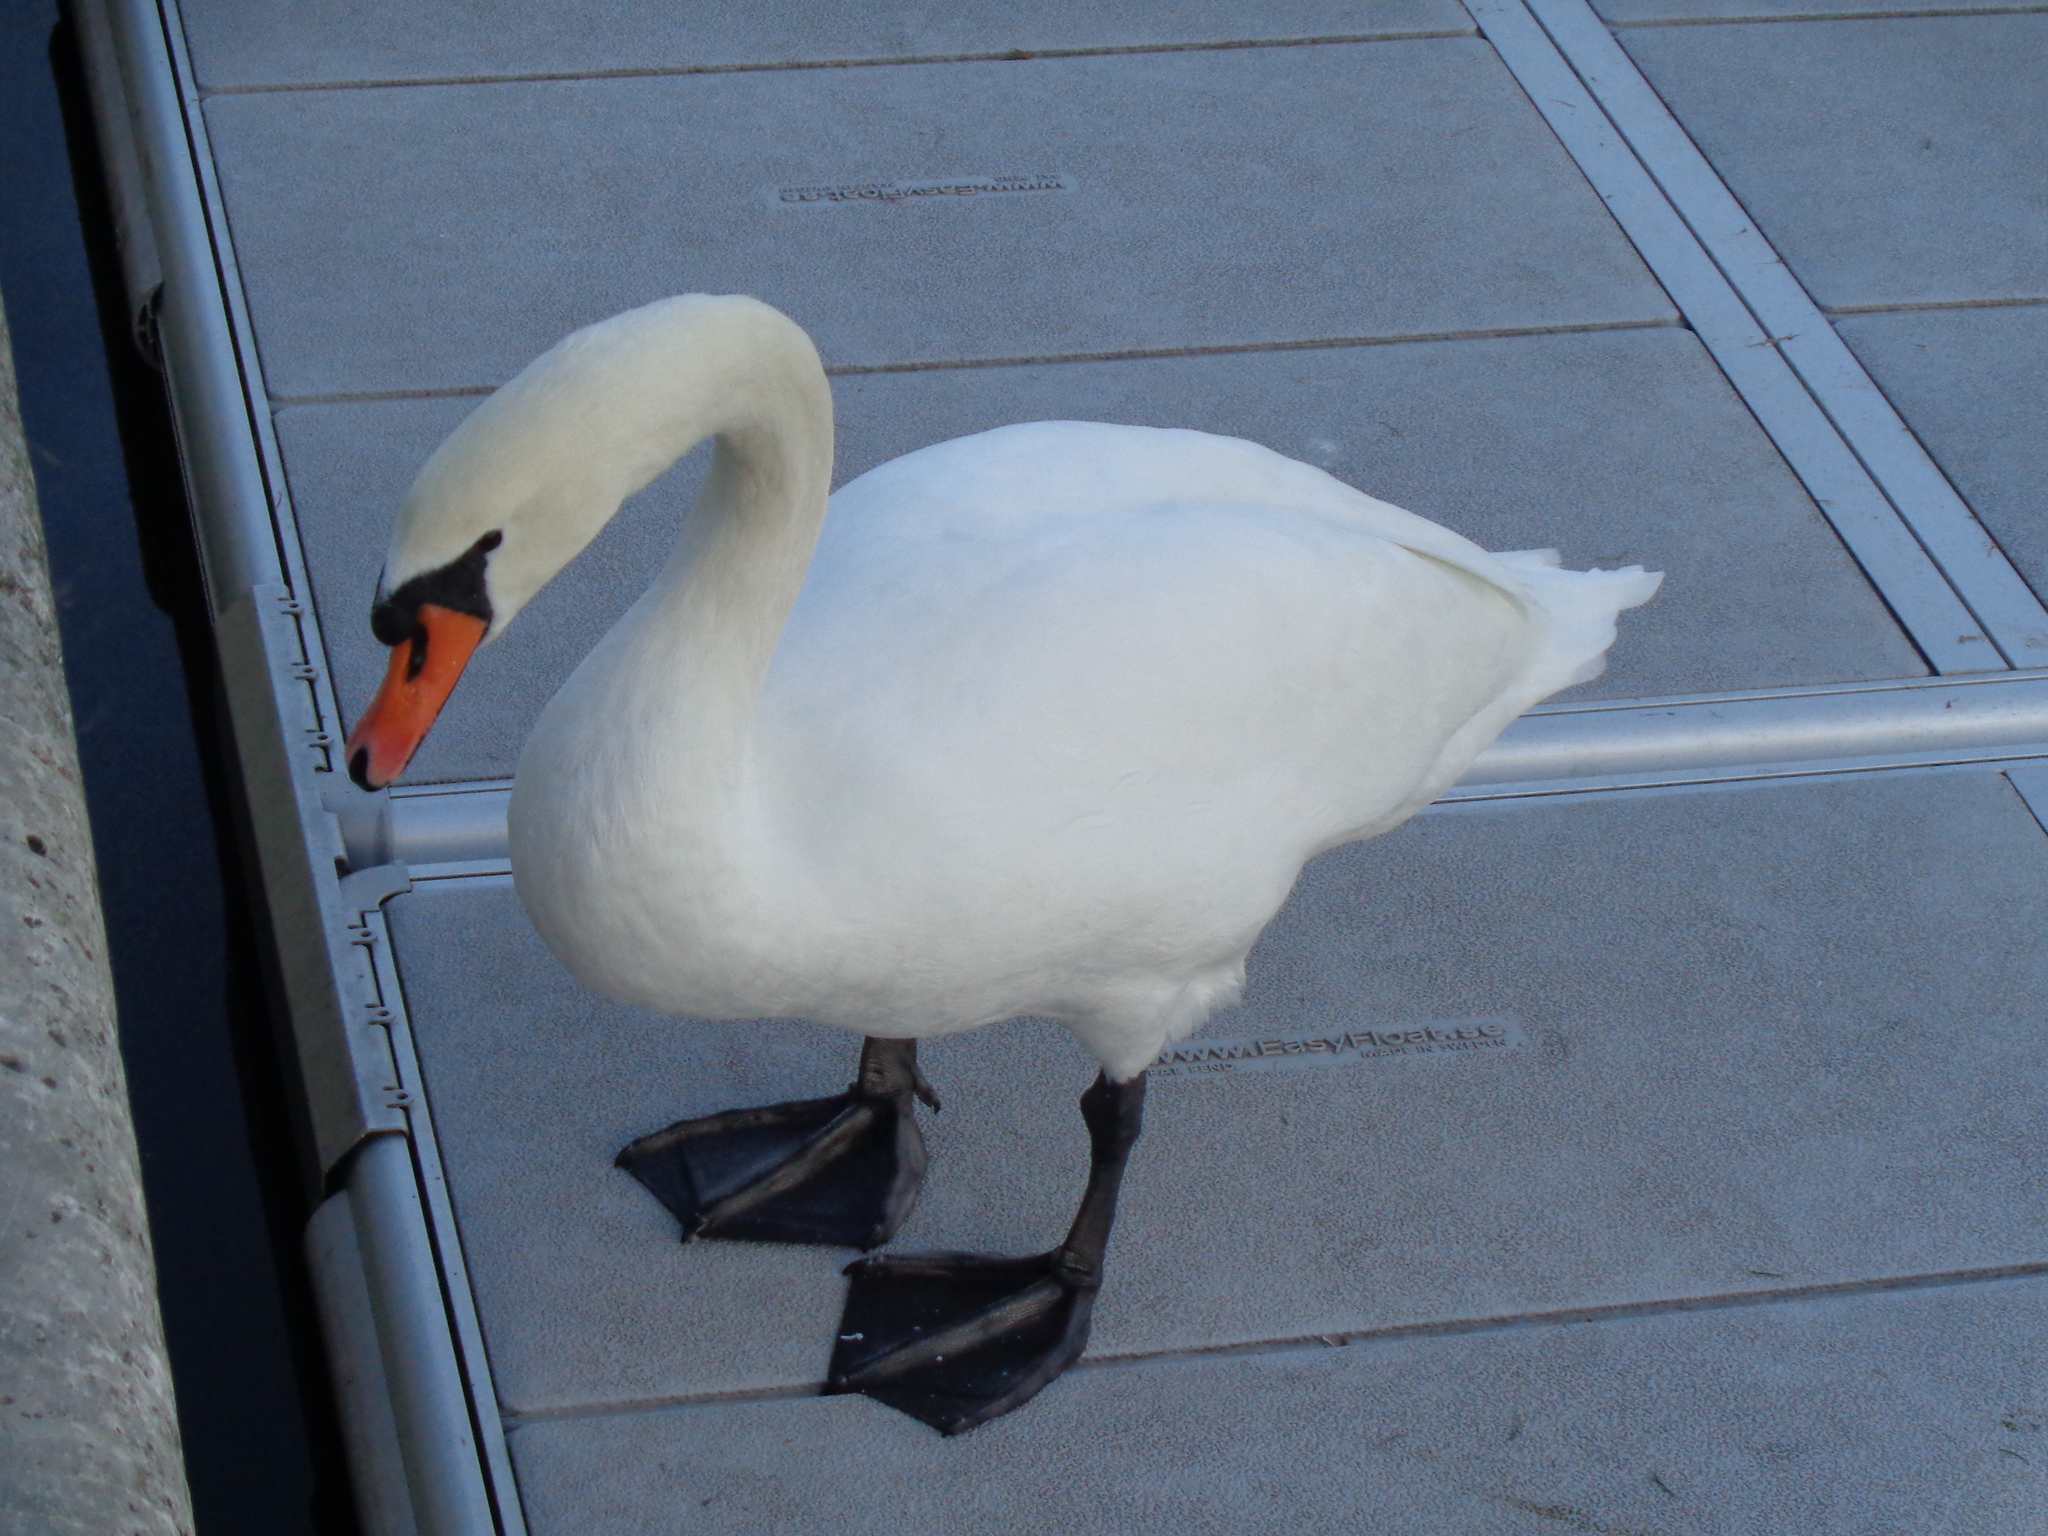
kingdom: Animalia
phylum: Chordata
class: Aves
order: Anseriformes
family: Anatidae
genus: Cygnus
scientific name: Cygnus olor
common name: Mute swan
